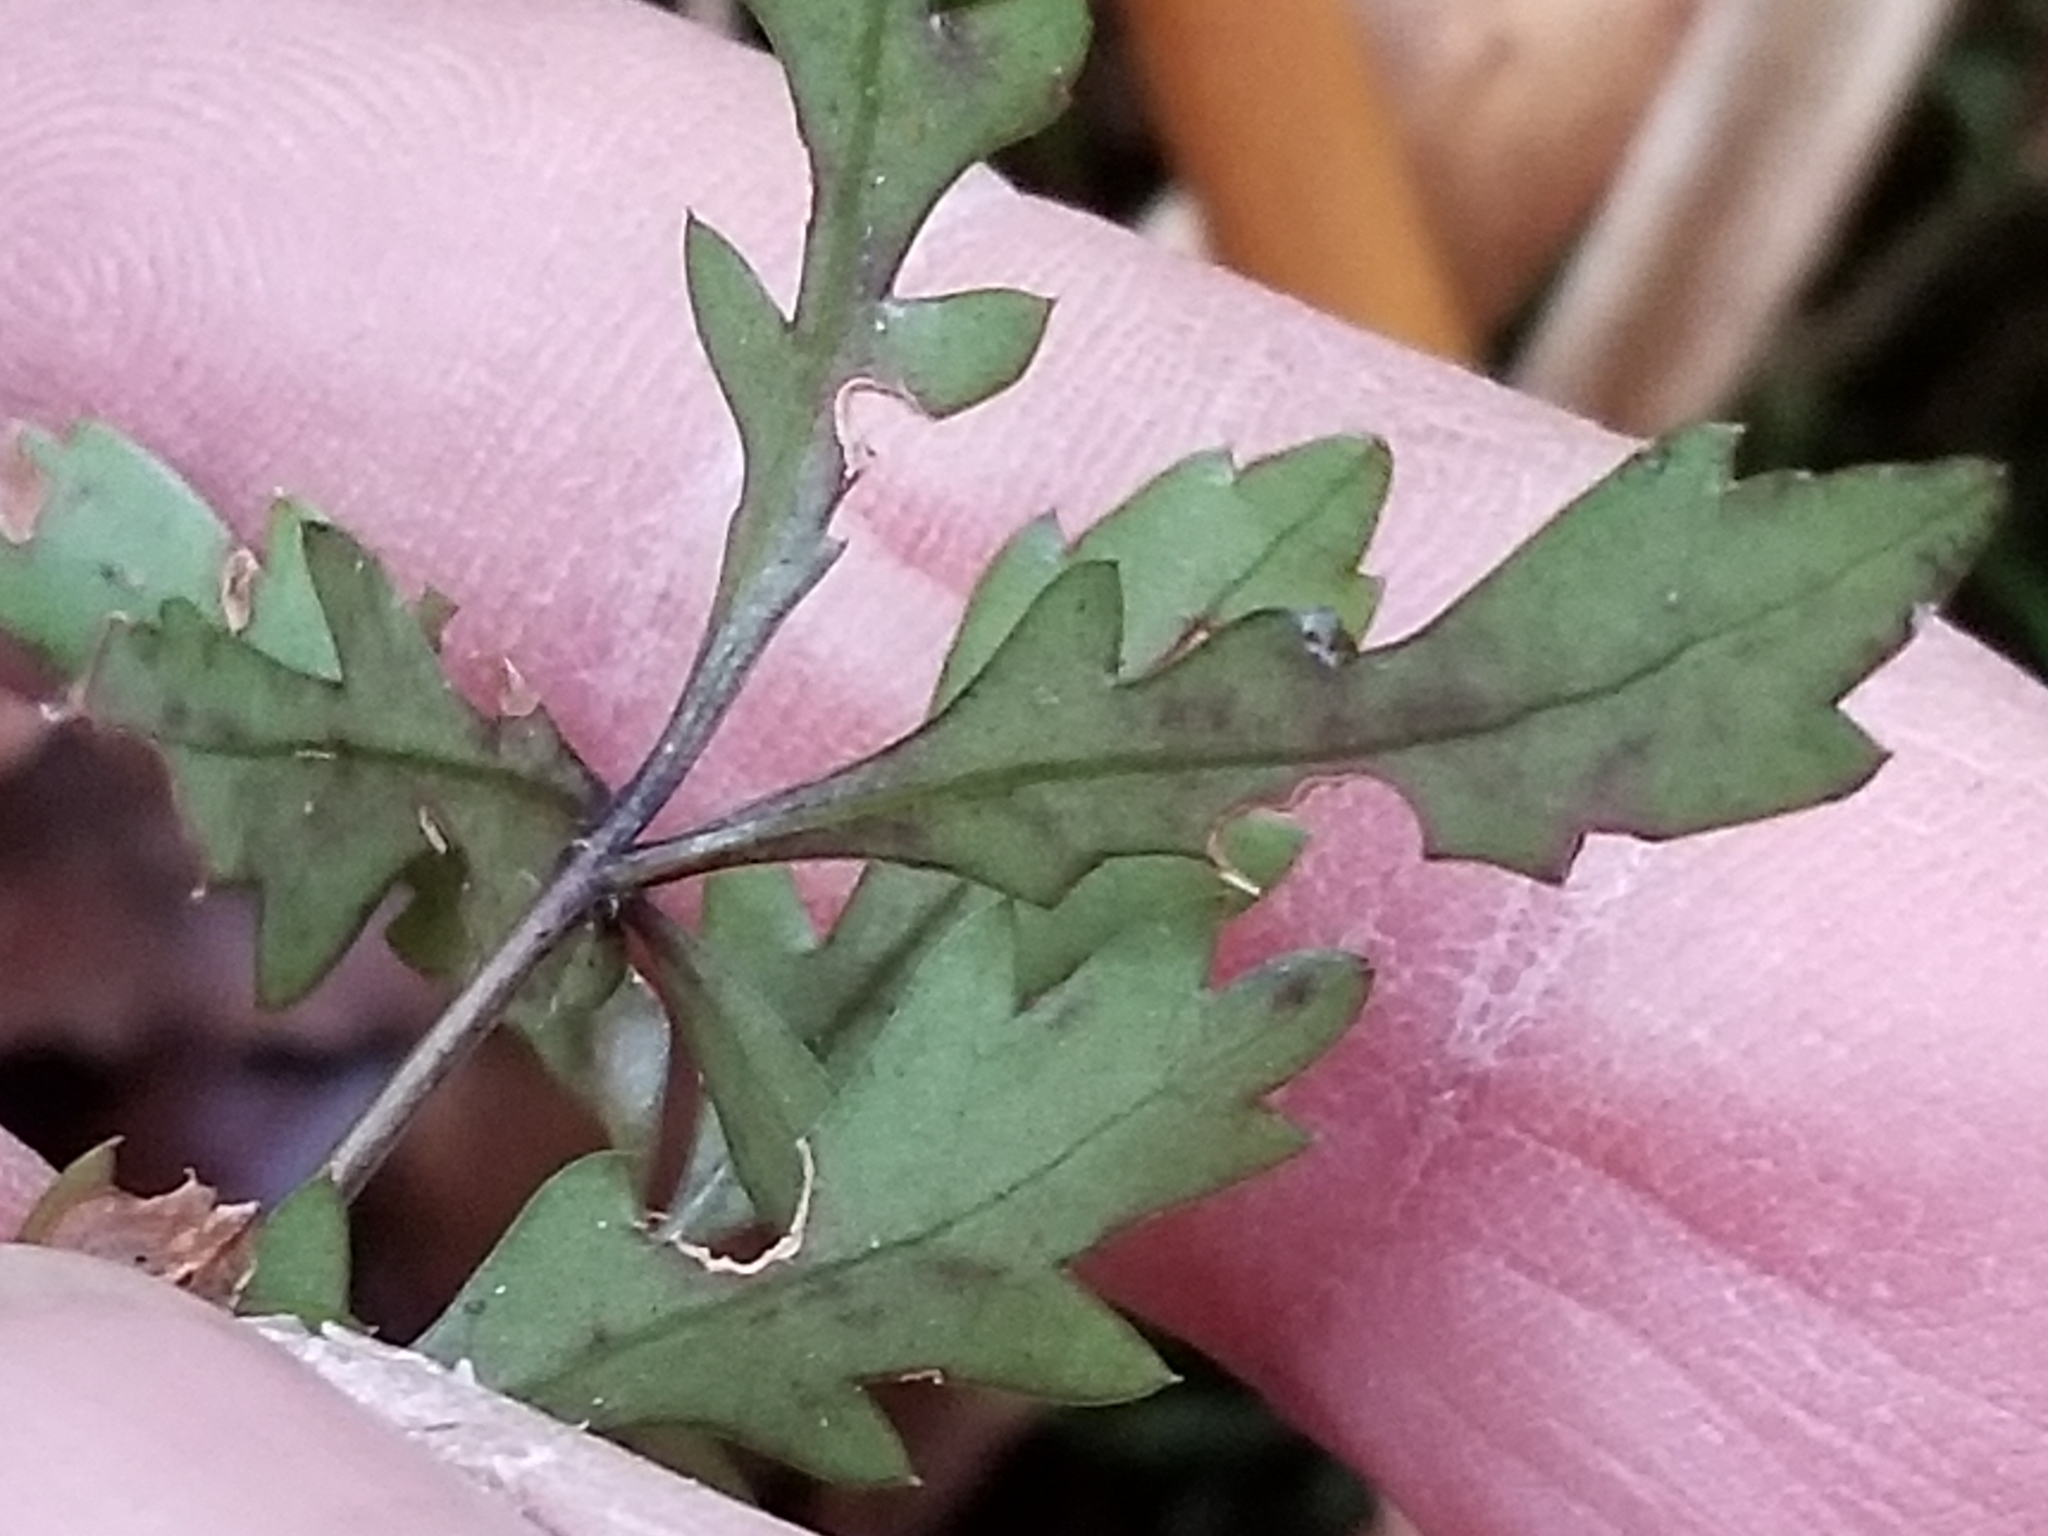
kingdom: Plantae
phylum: Tracheophyta
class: Magnoliopsida
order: Apiales
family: Araliaceae
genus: Raukaua
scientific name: Raukaua simplex
